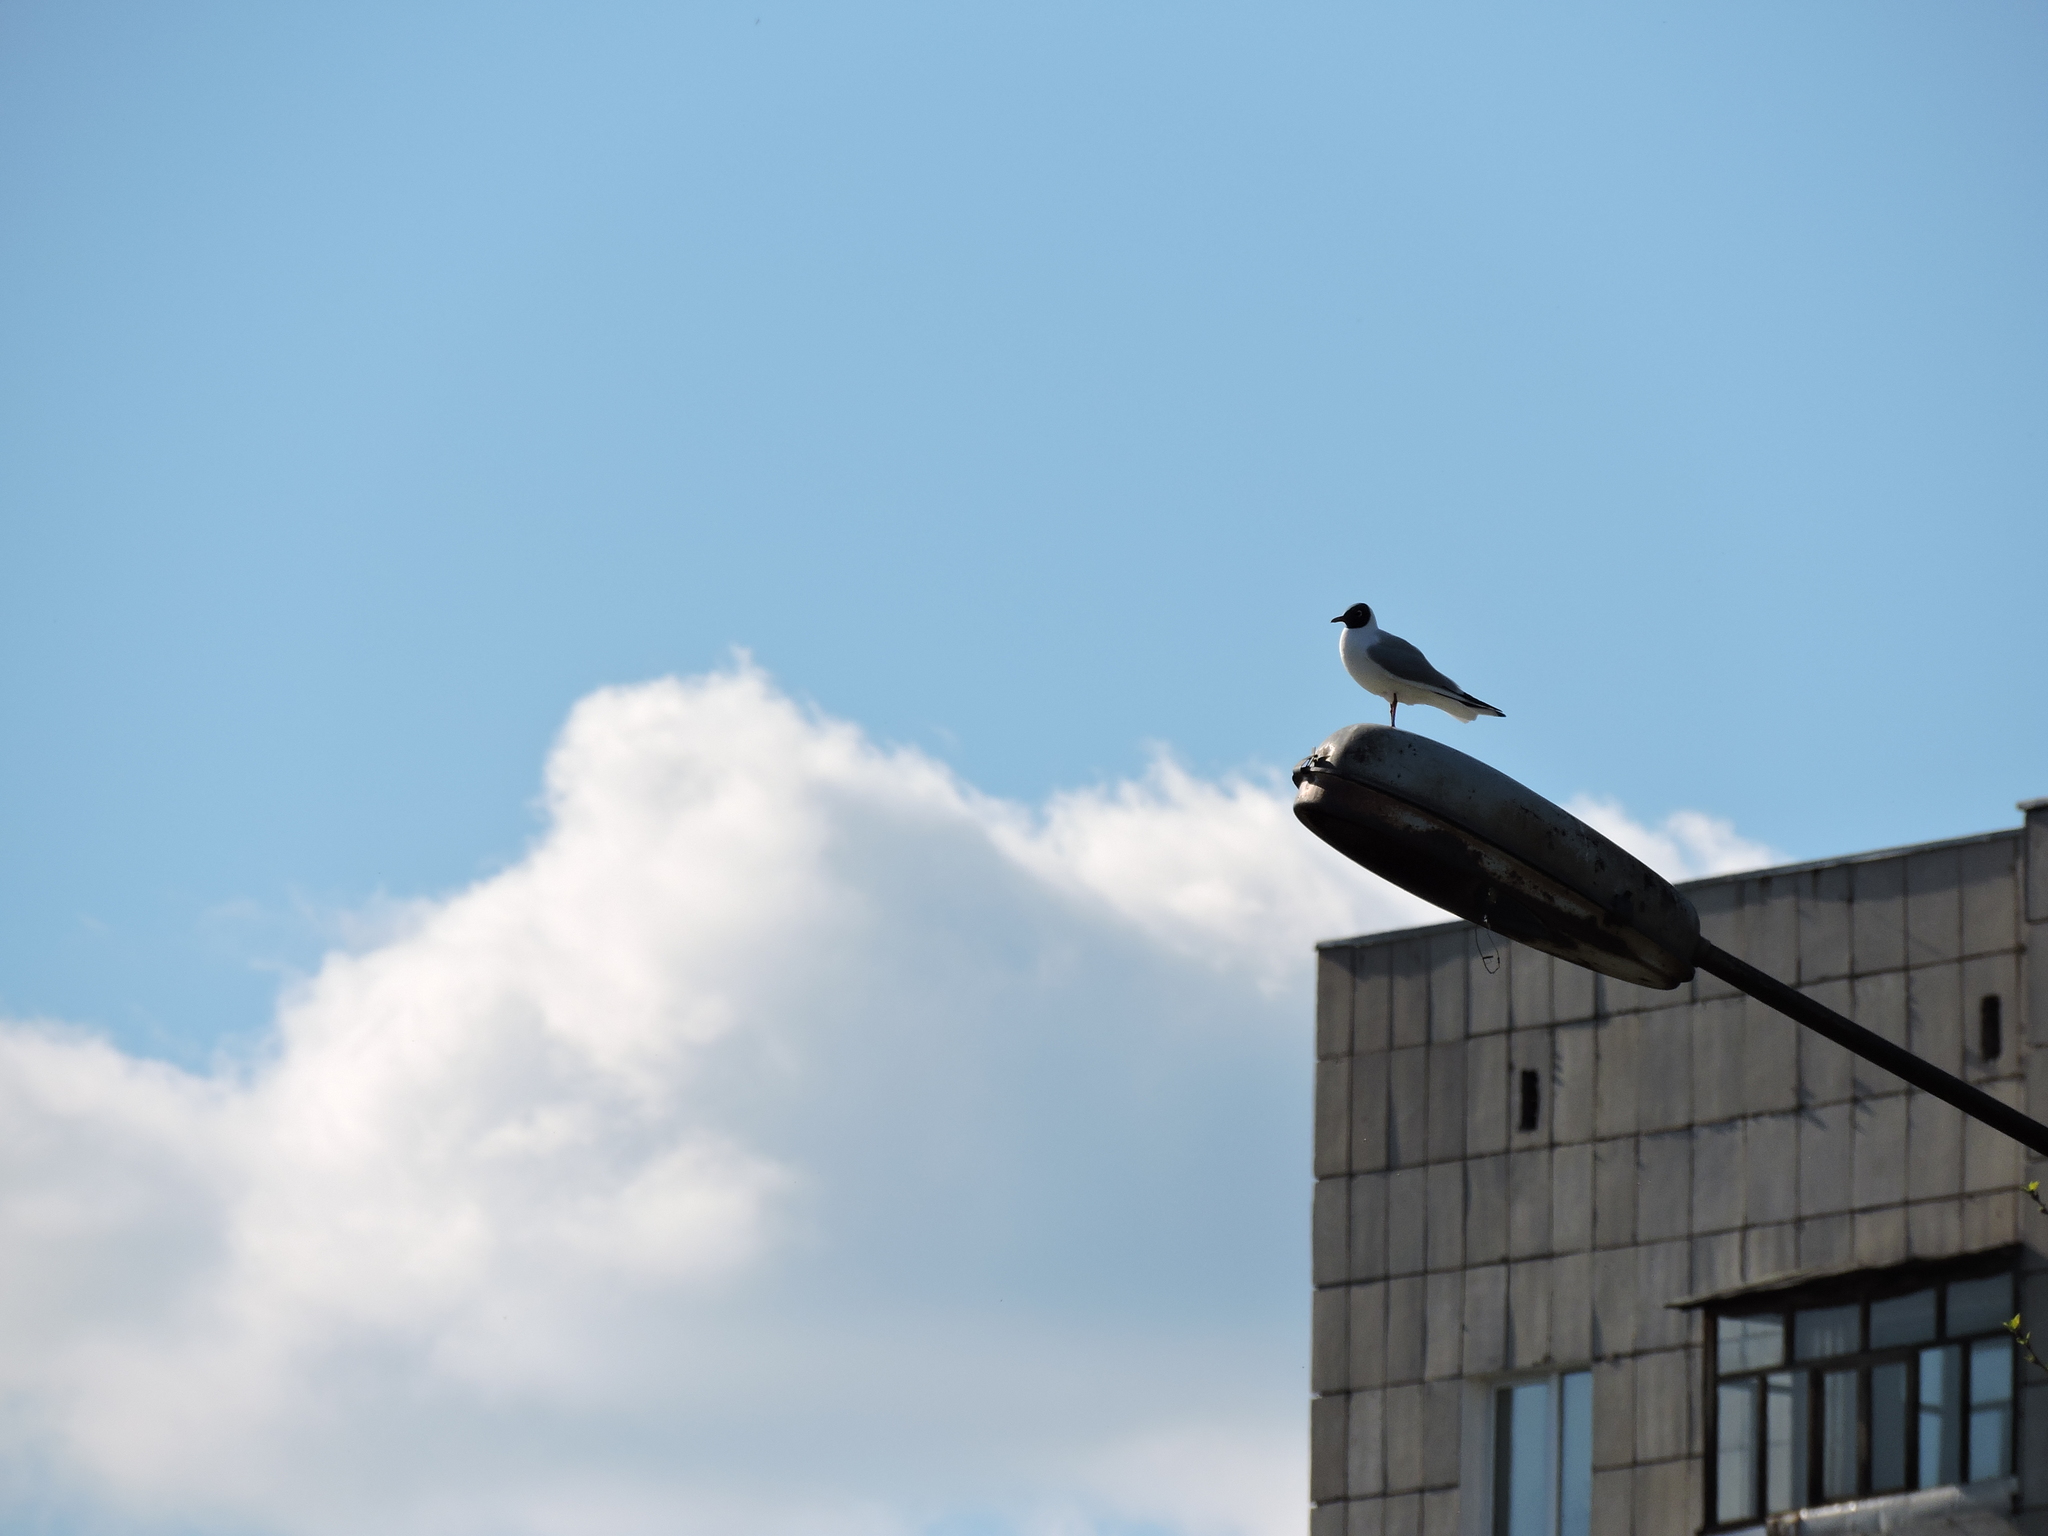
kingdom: Animalia
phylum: Chordata
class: Aves
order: Charadriiformes
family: Laridae
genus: Chroicocephalus
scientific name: Chroicocephalus ridibundus
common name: Black-headed gull
